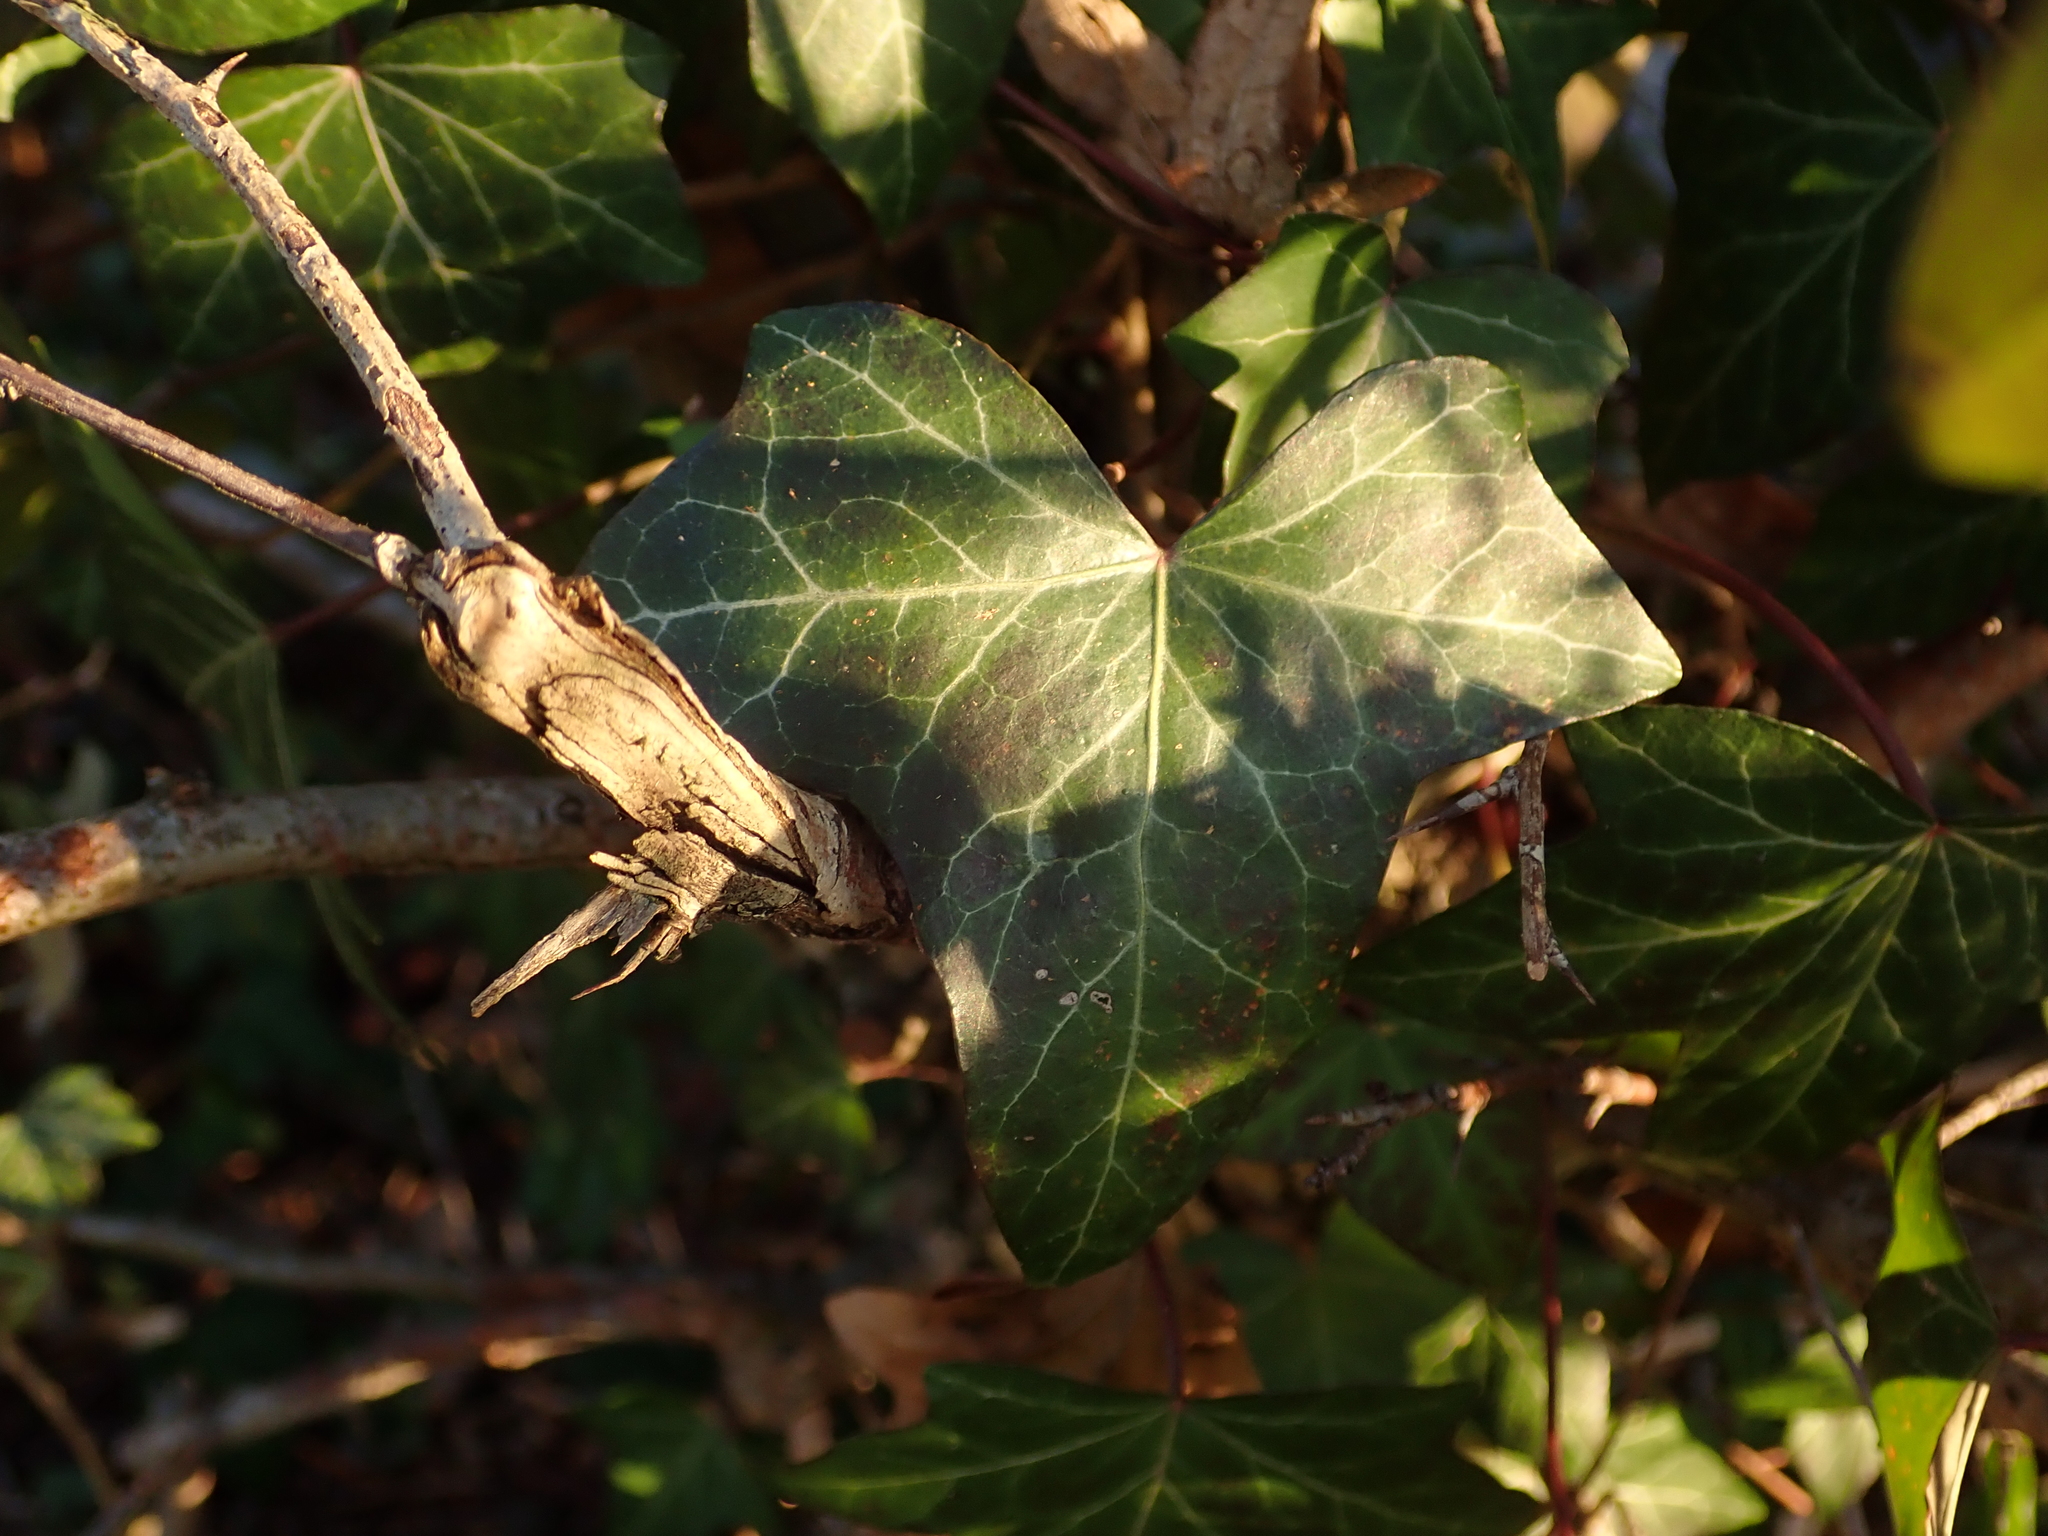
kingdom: Plantae
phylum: Tracheophyta
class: Magnoliopsida
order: Apiales
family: Araliaceae
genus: Hedera
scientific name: Hedera helix
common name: Ivy
